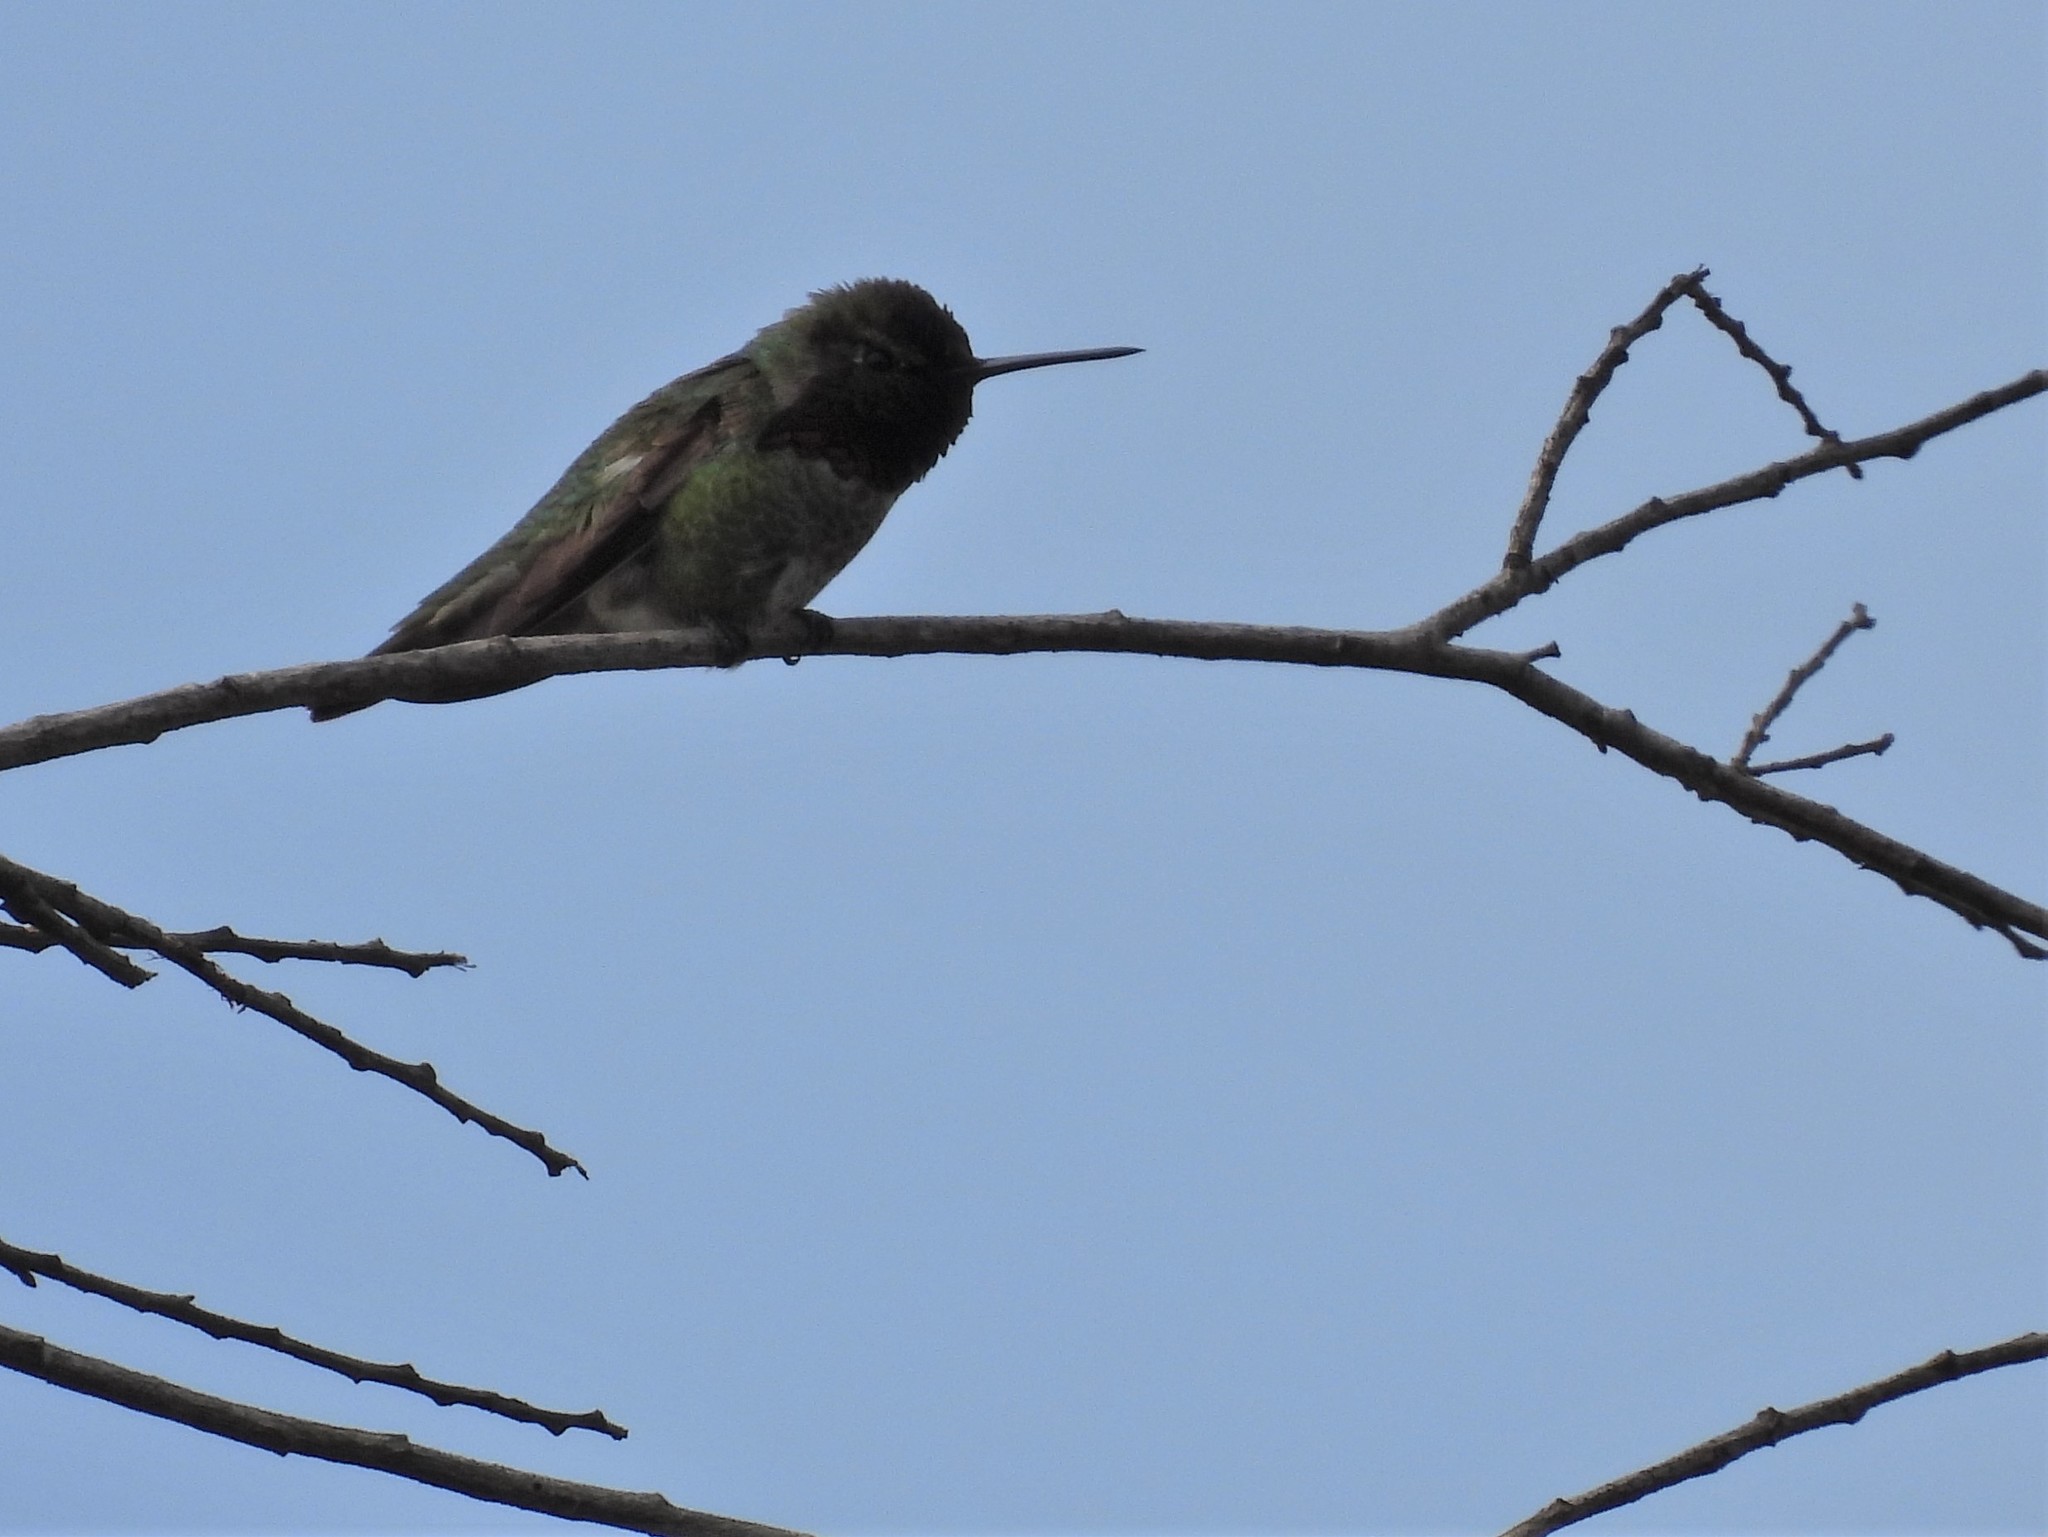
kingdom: Animalia
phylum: Chordata
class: Aves
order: Apodiformes
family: Trochilidae
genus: Calypte
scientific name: Calypte anna
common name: Anna's hummingbird
